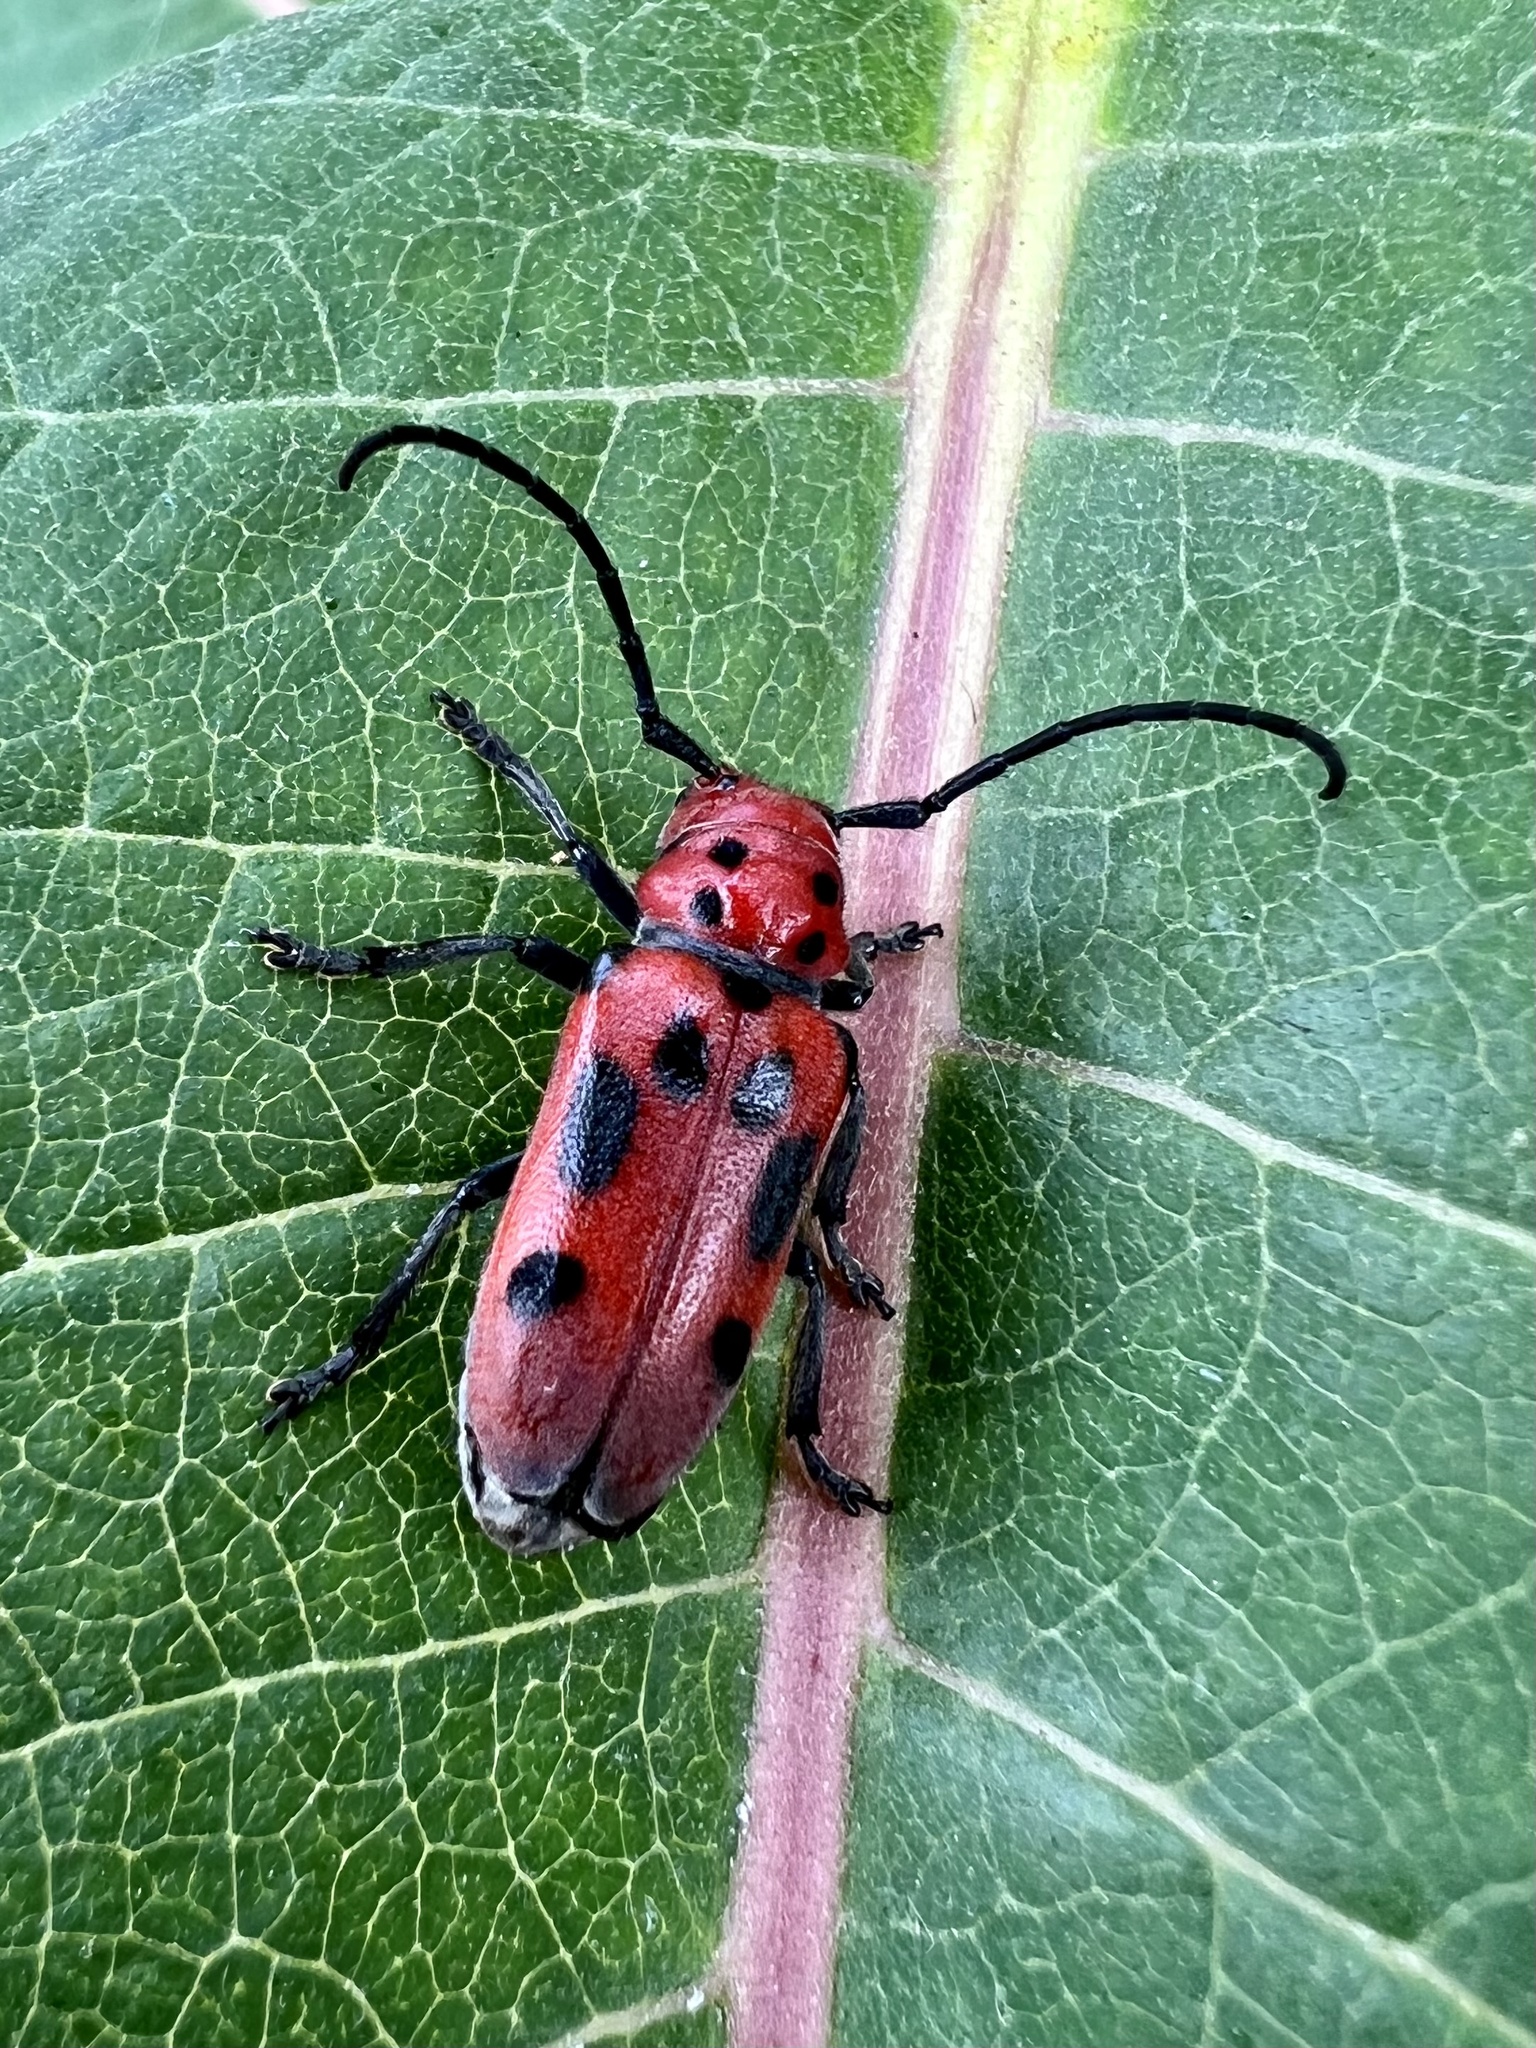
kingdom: Animalia
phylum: Arthropoda
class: Insecta
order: Coleoptera
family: Cerambycidae
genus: Tetraopes
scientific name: Tetraopes tetrophthalmus
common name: Red milkweed beetle
